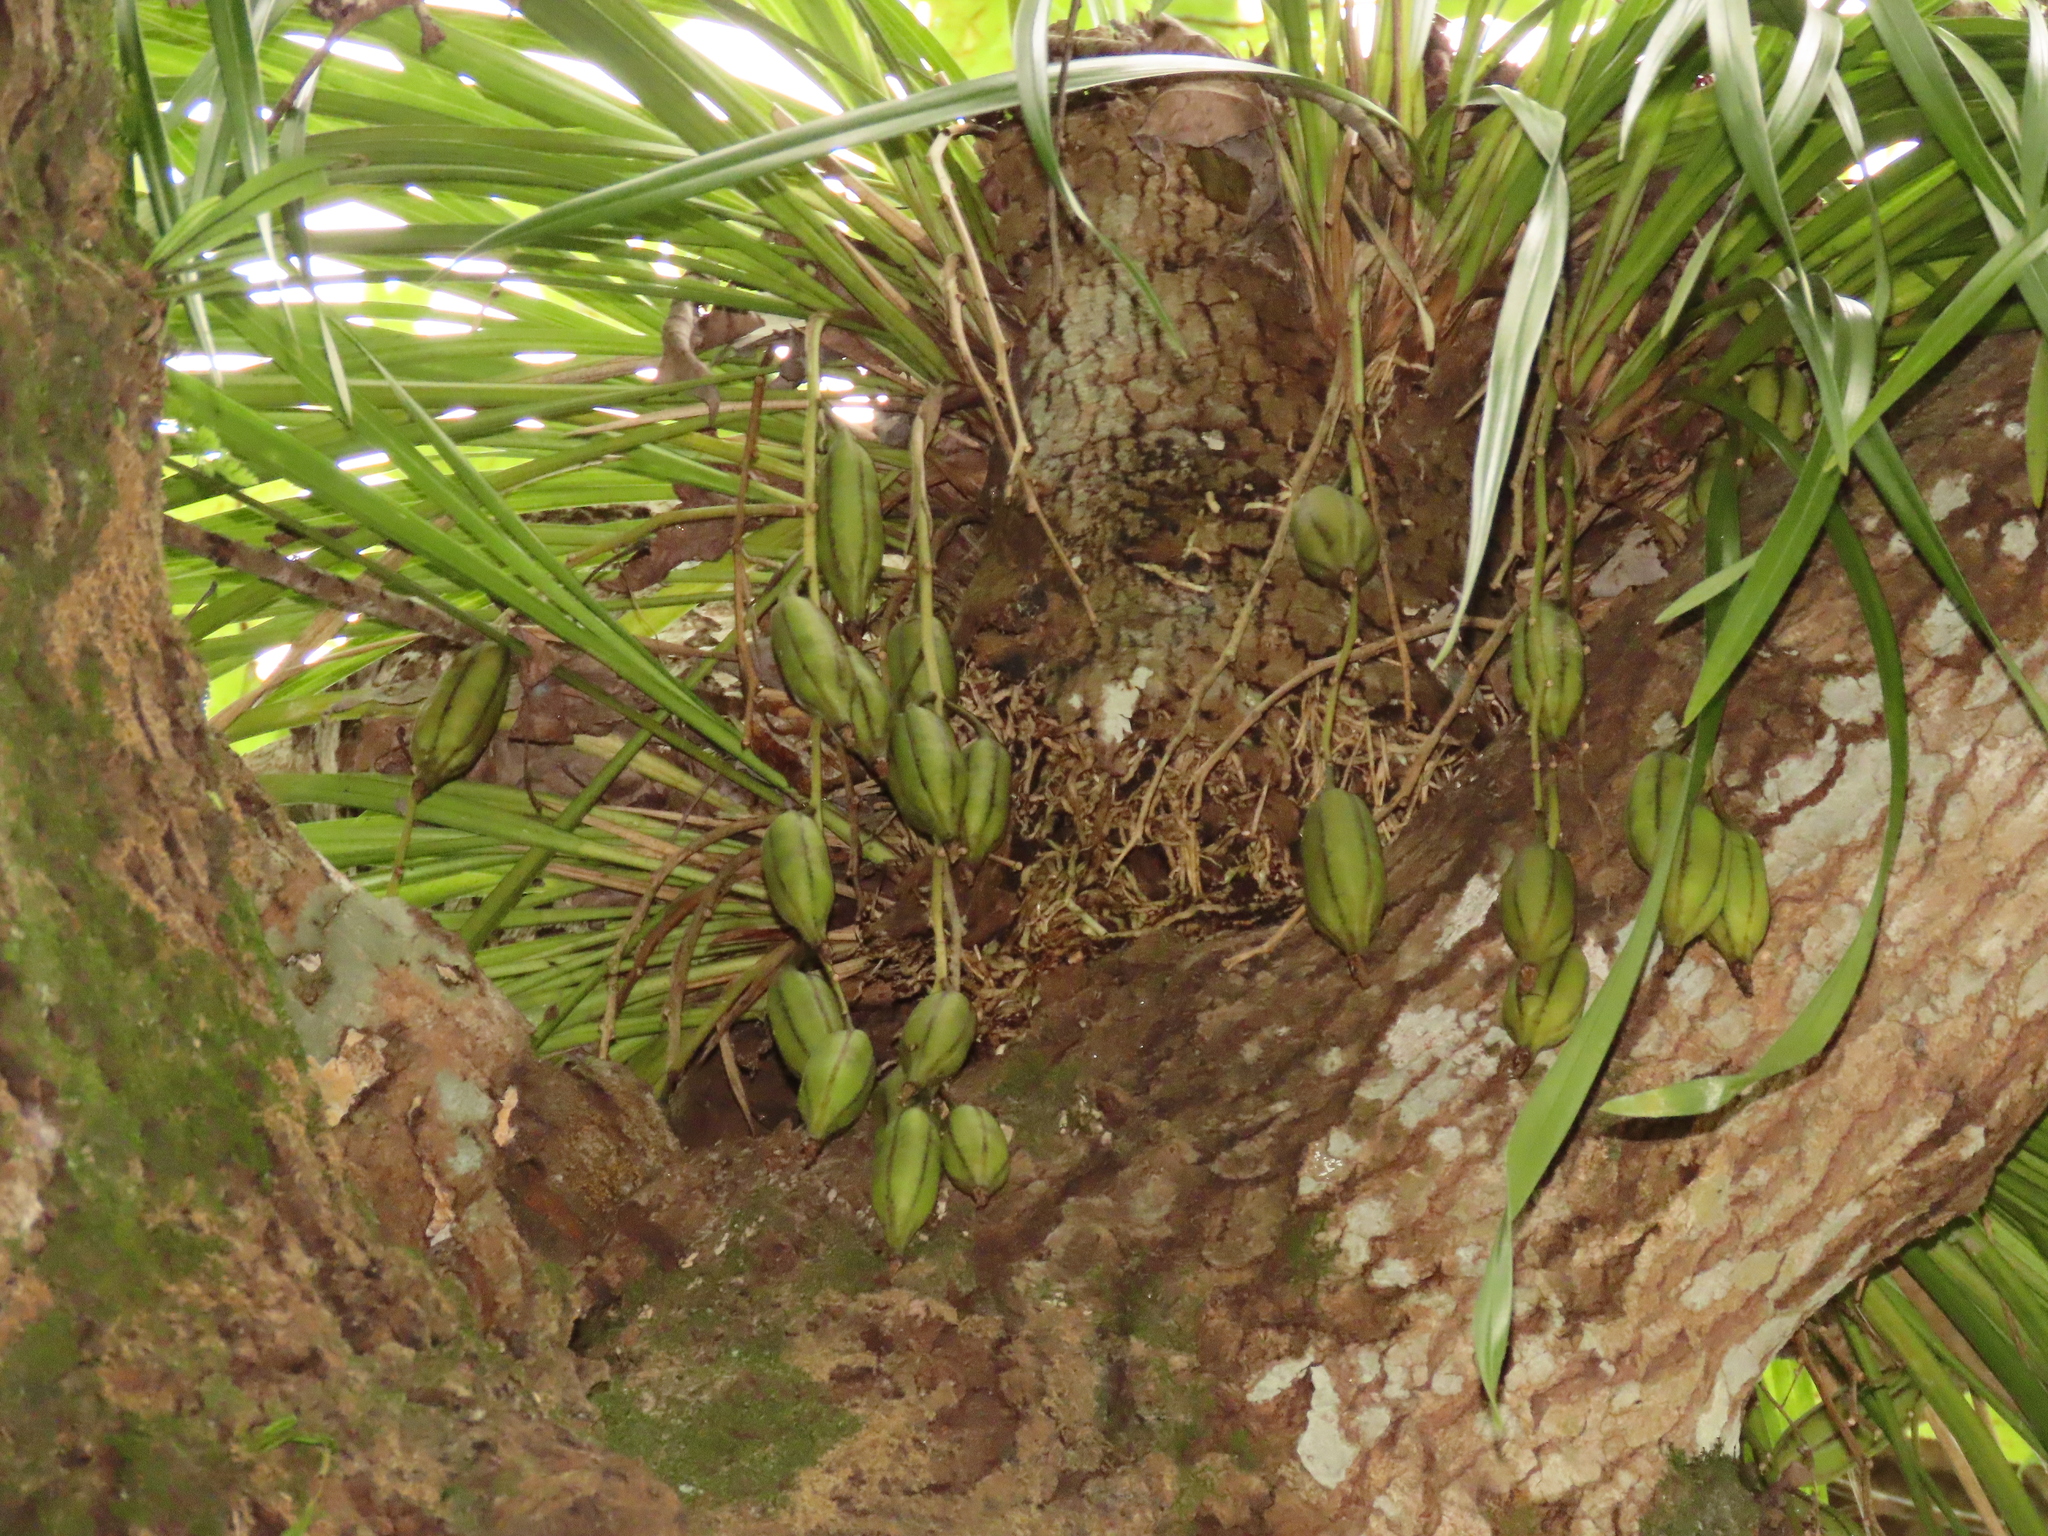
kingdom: Plantae
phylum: Tracheophyta
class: Liliopsida
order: Asparagales
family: Orchidaceae
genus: Cymbidium
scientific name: Cymbidium dayanum
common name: Orchid
